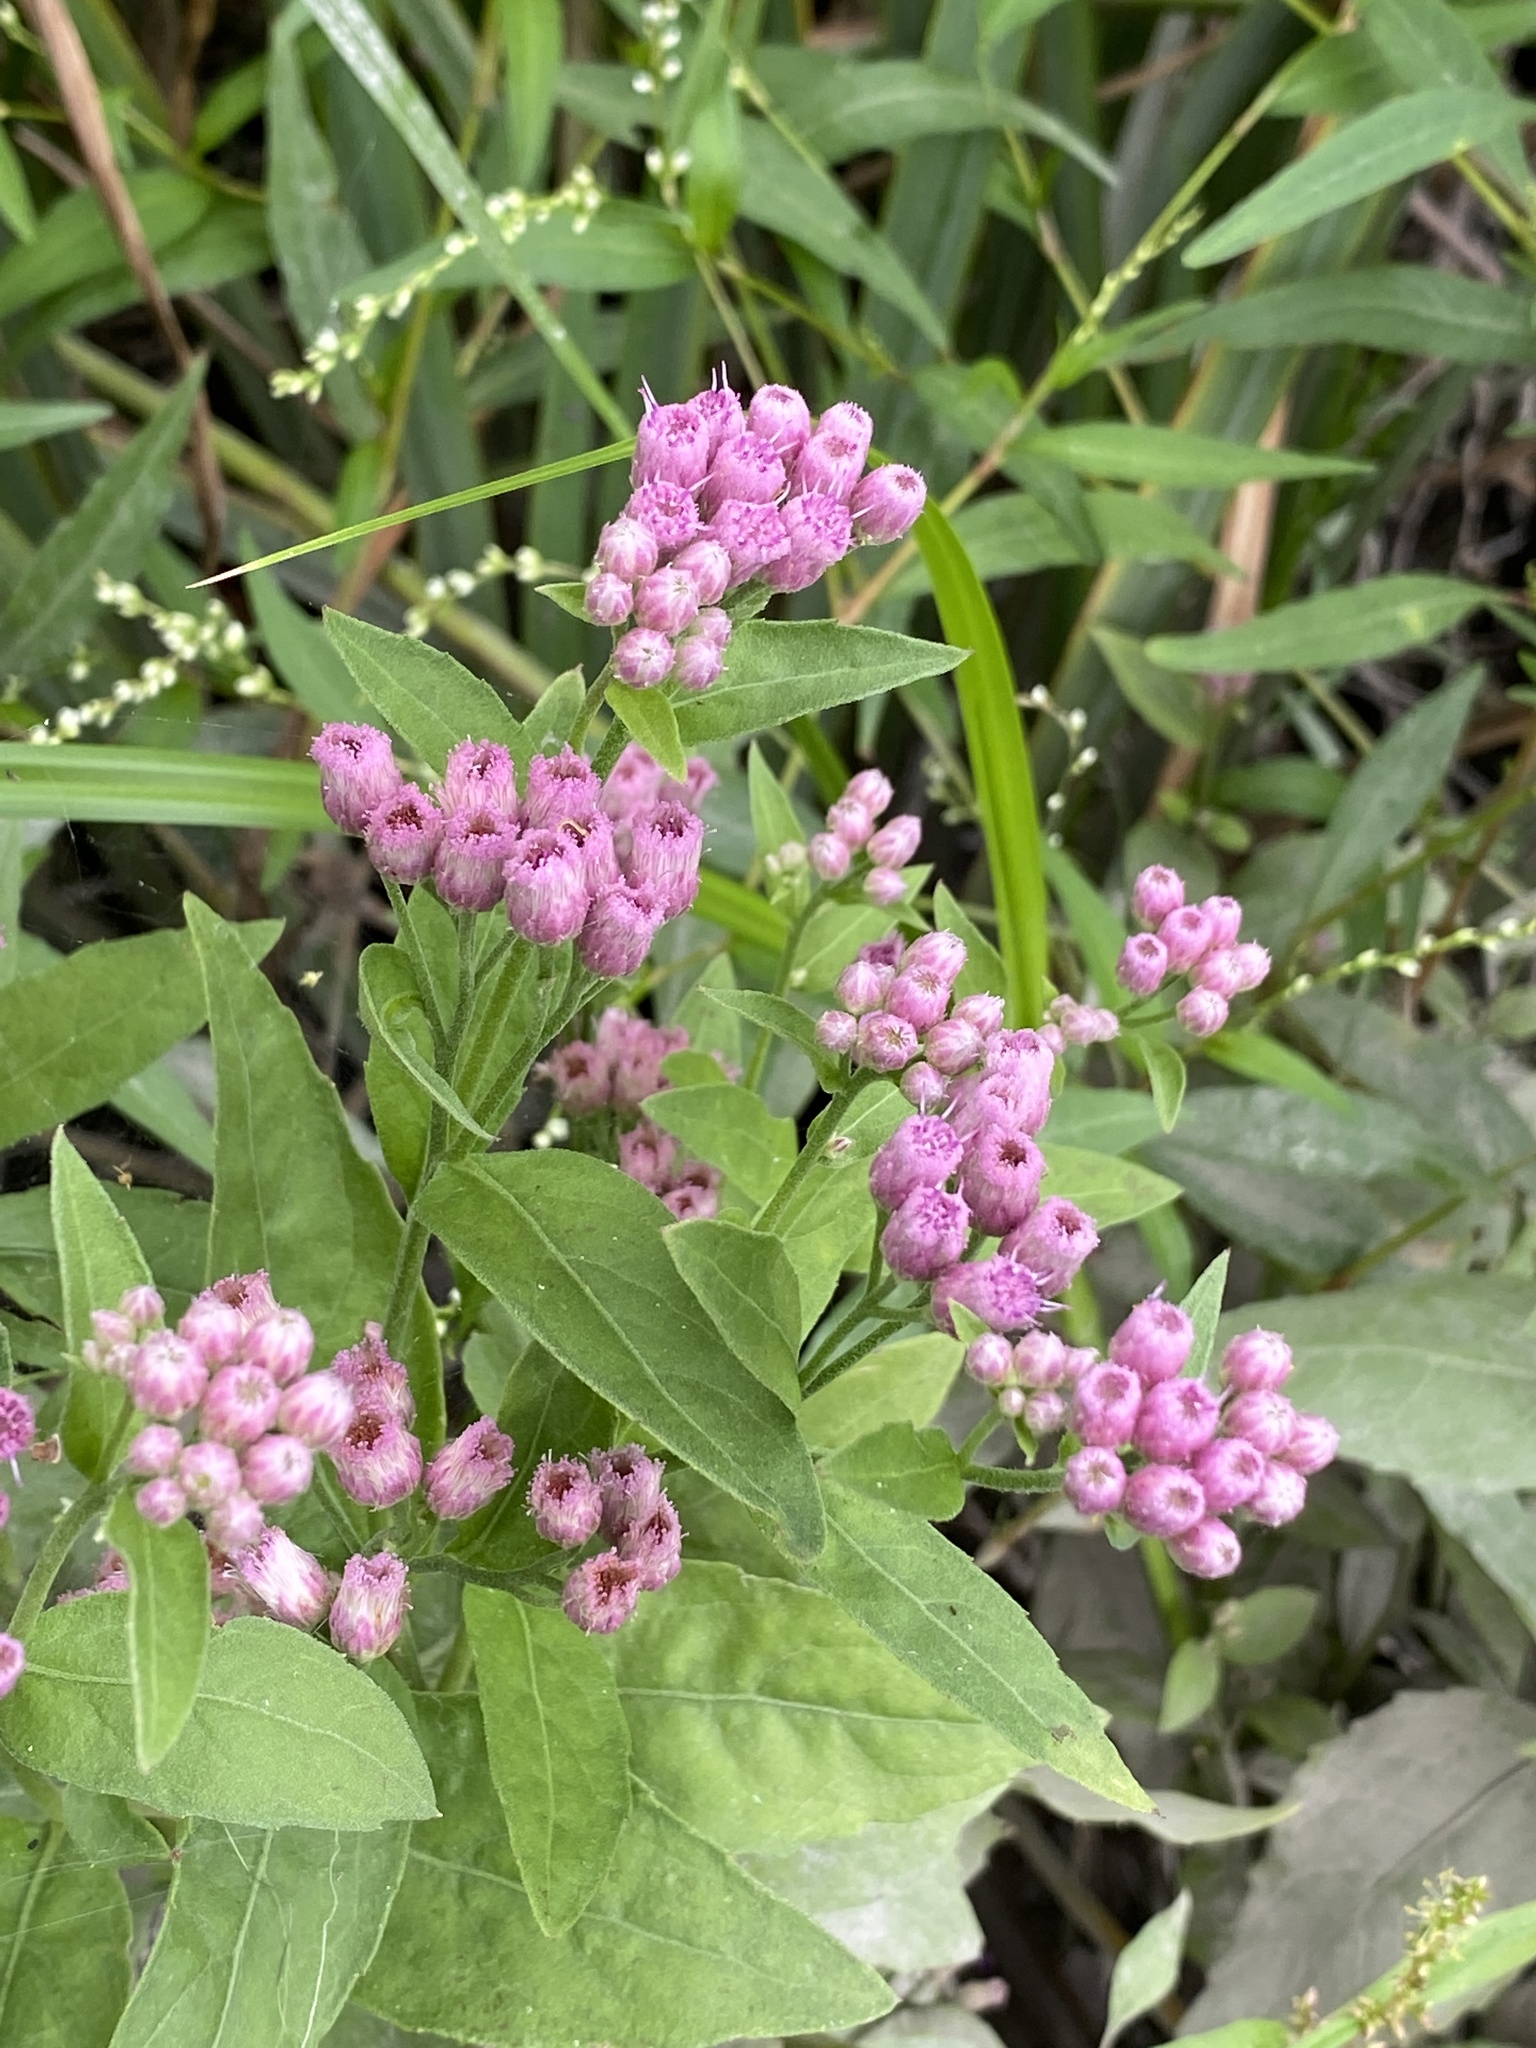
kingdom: Plantae
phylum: Tracheophyta
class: Magnoliopsida
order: Asterales
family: Asteraceae
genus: Pluchea
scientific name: Pluchea odorata
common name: Saltmarsh fleabane
